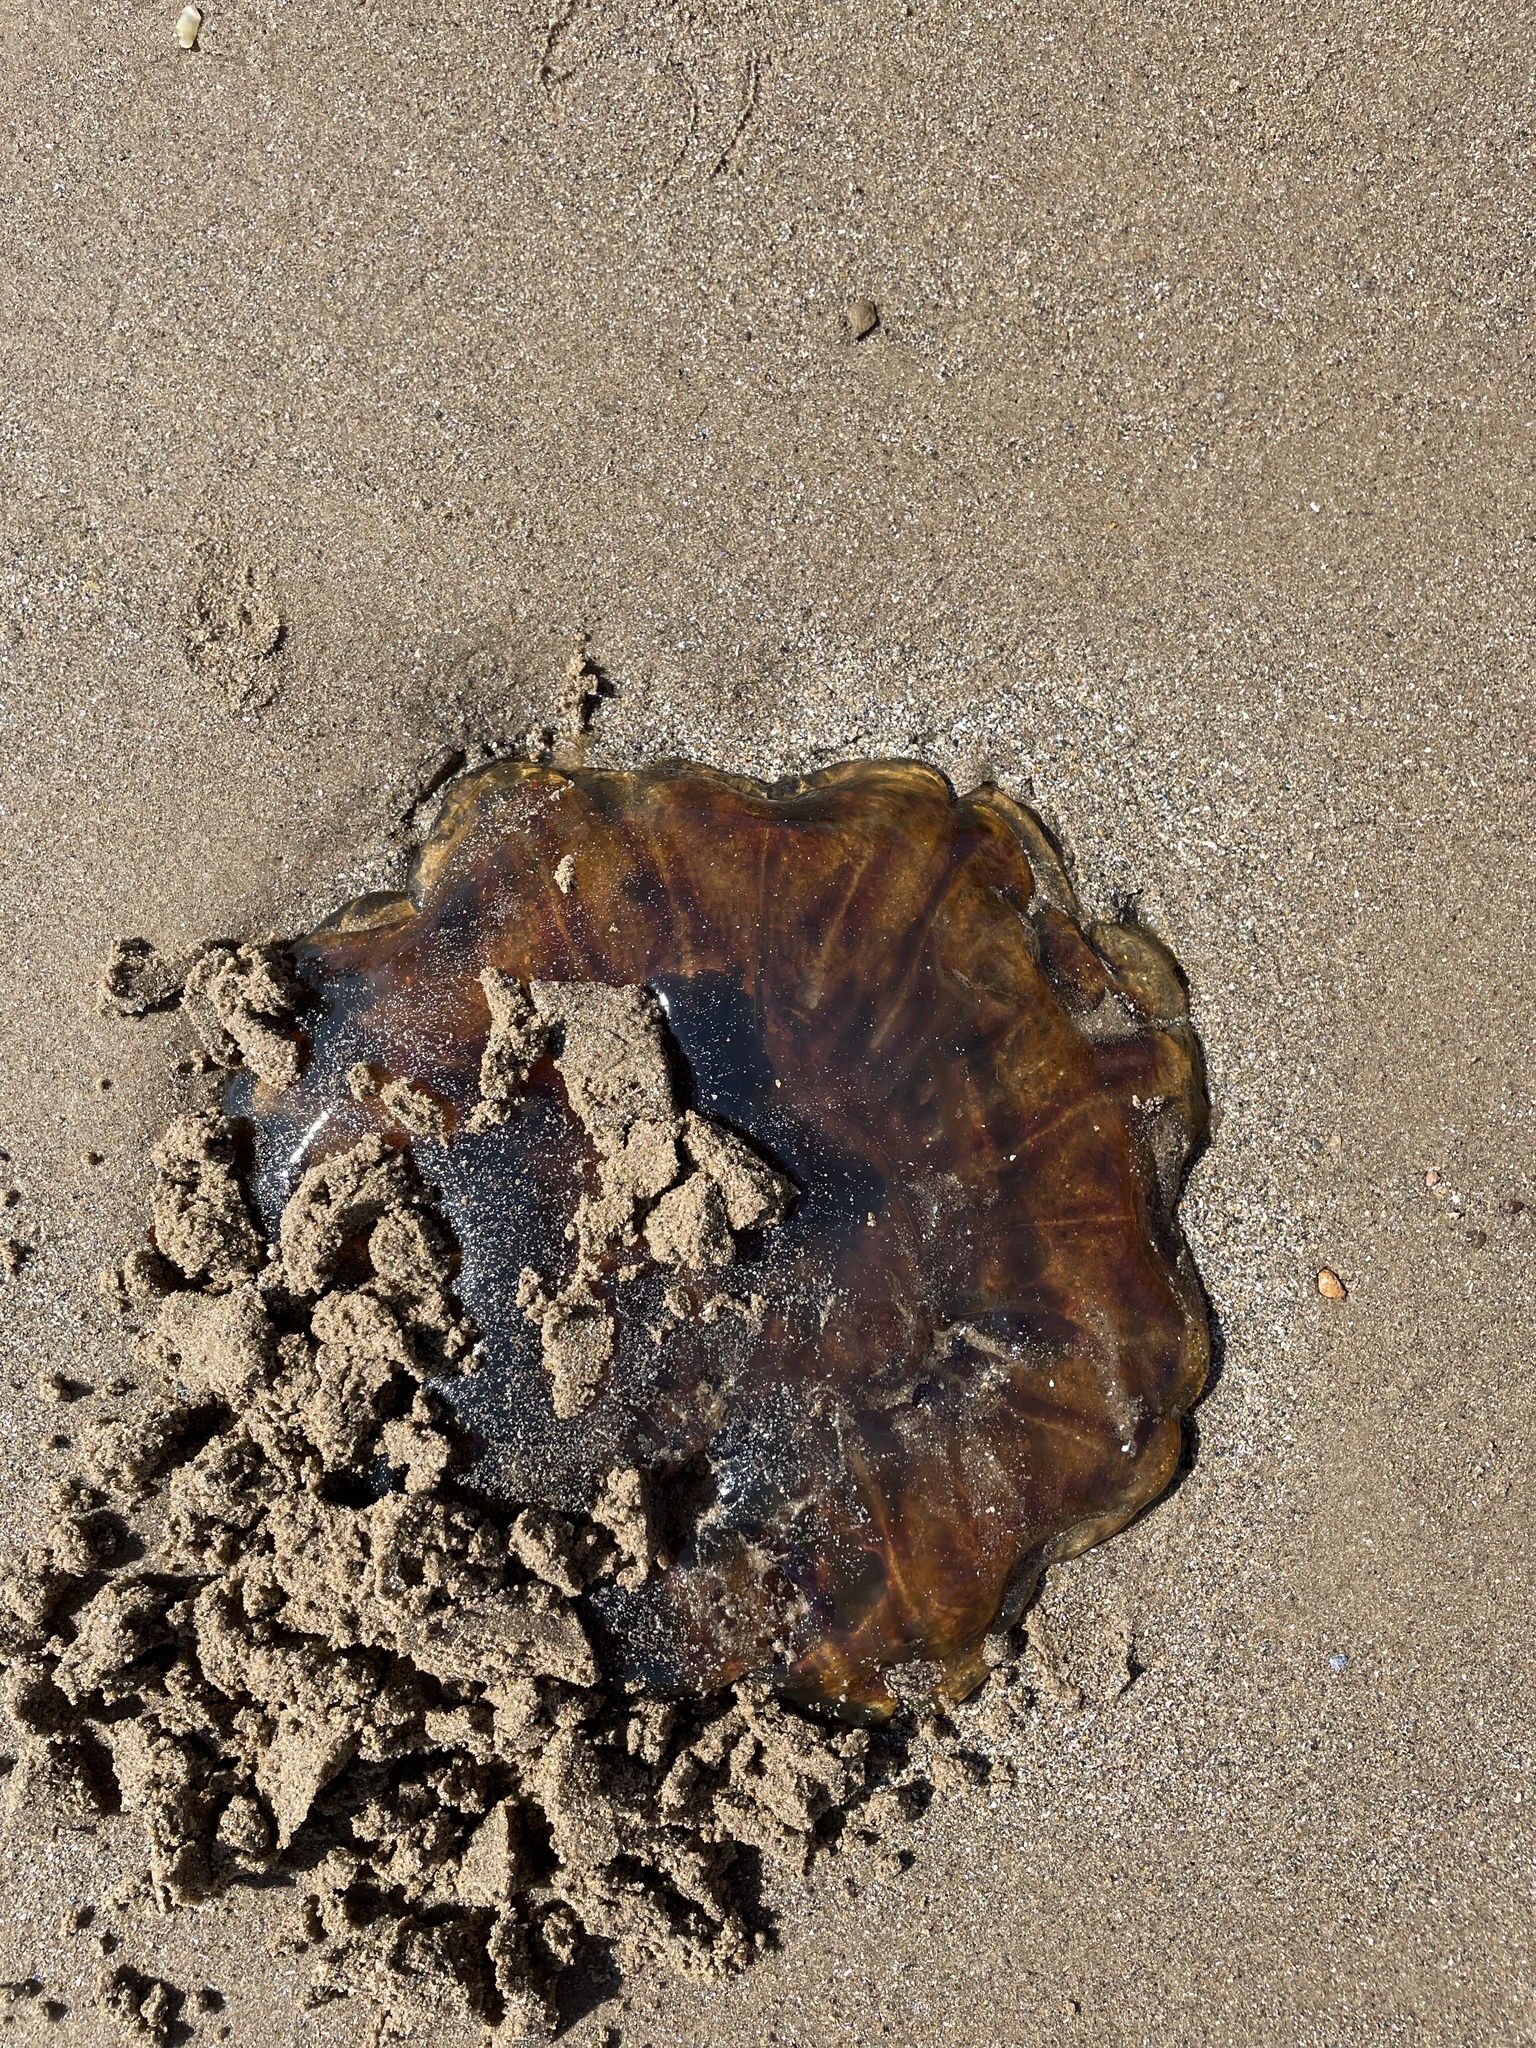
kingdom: Animalia
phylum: Cnidaria
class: Scyphozoa
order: Semaeostomeae
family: Cyaneidae
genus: Cyanea
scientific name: Cyanea capillata
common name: Lion's mane jellyfish
